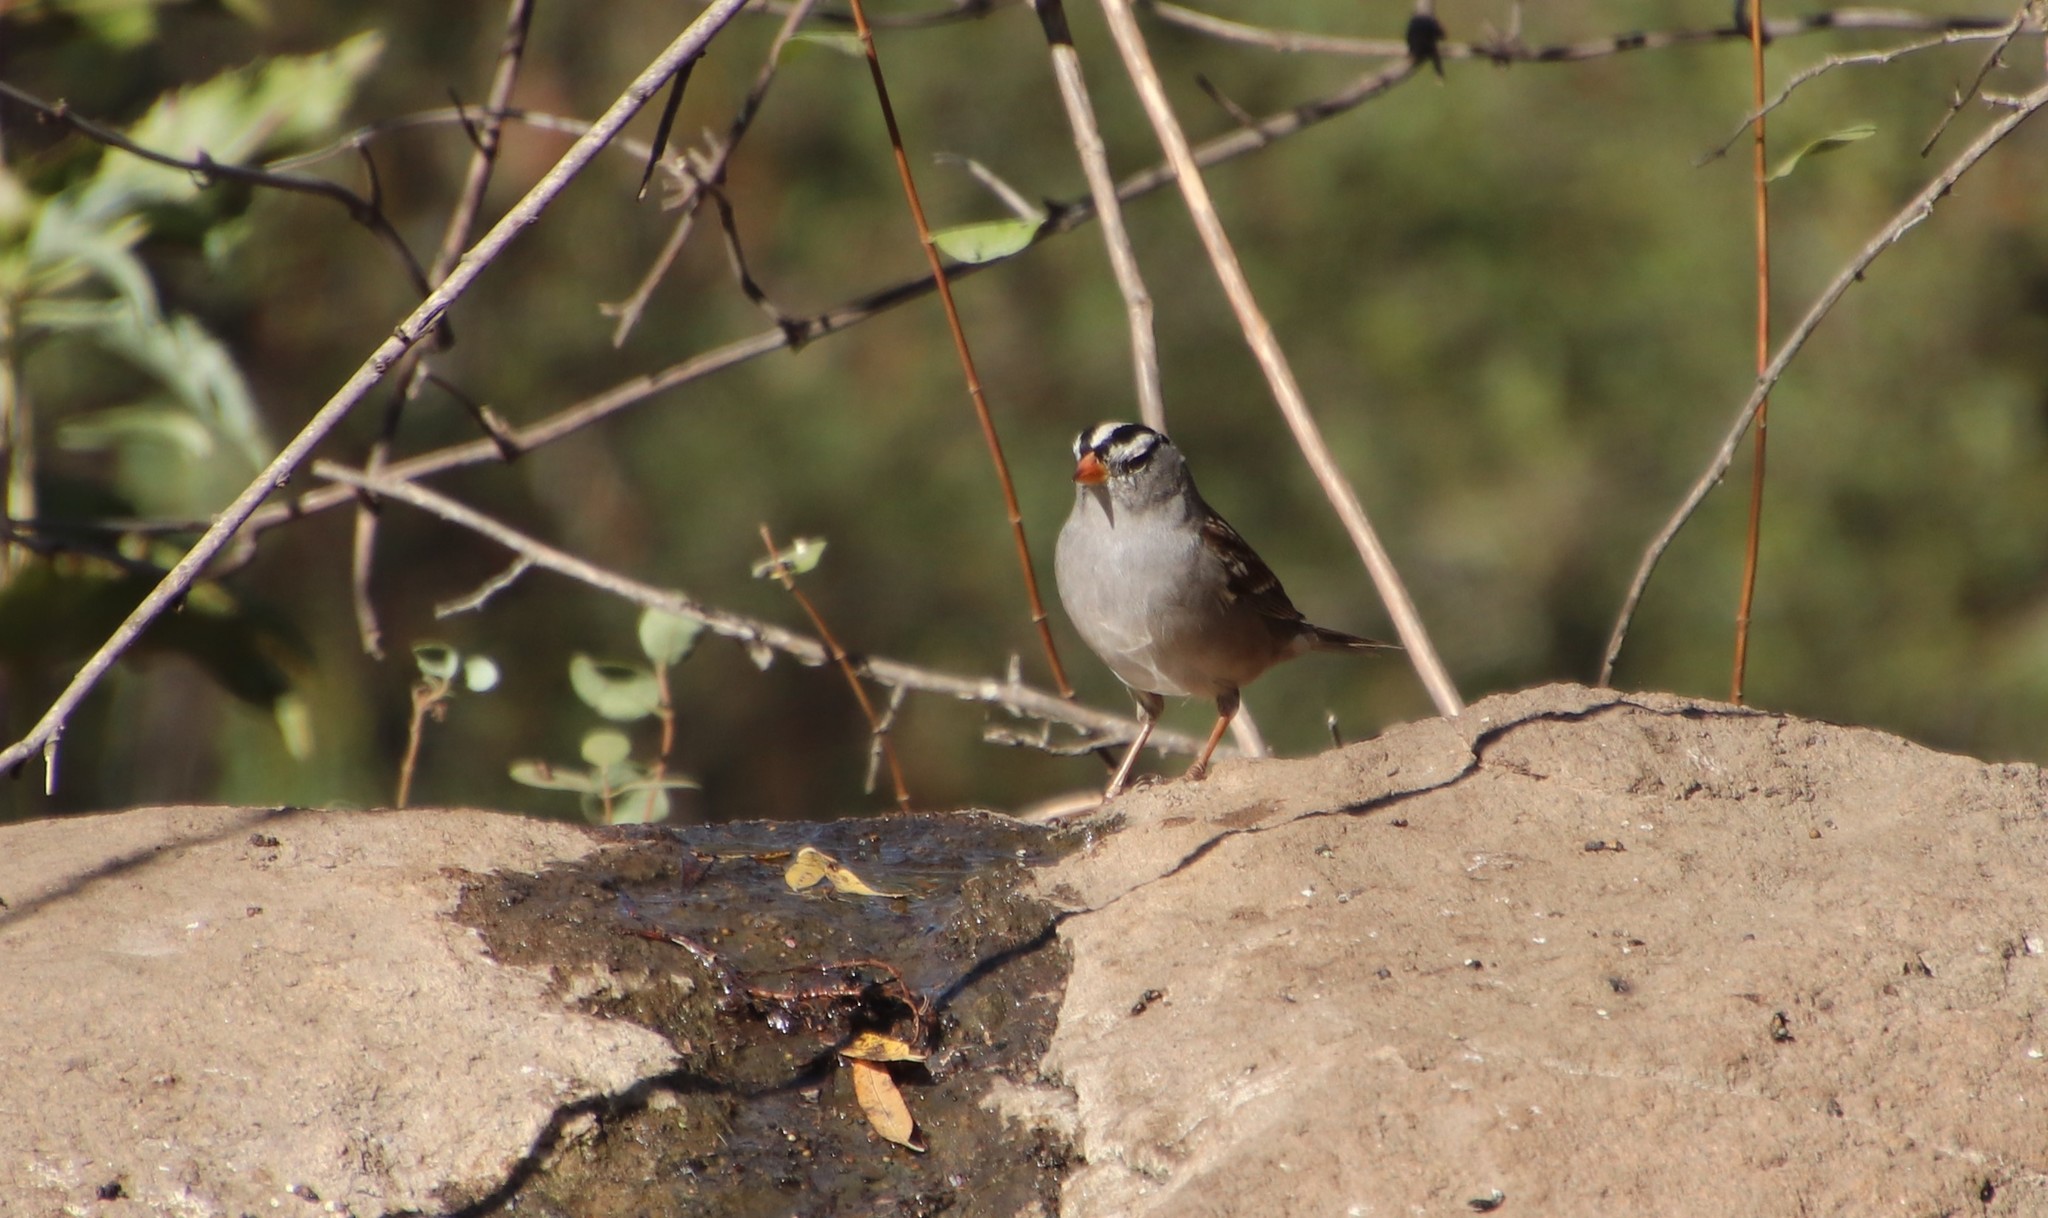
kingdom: Animalia
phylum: Chordata
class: Aves
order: Passeriformes
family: Passerellidae
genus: Zonotrichia
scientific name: Zonotrichia leucophrys
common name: White-crowned sparrow
